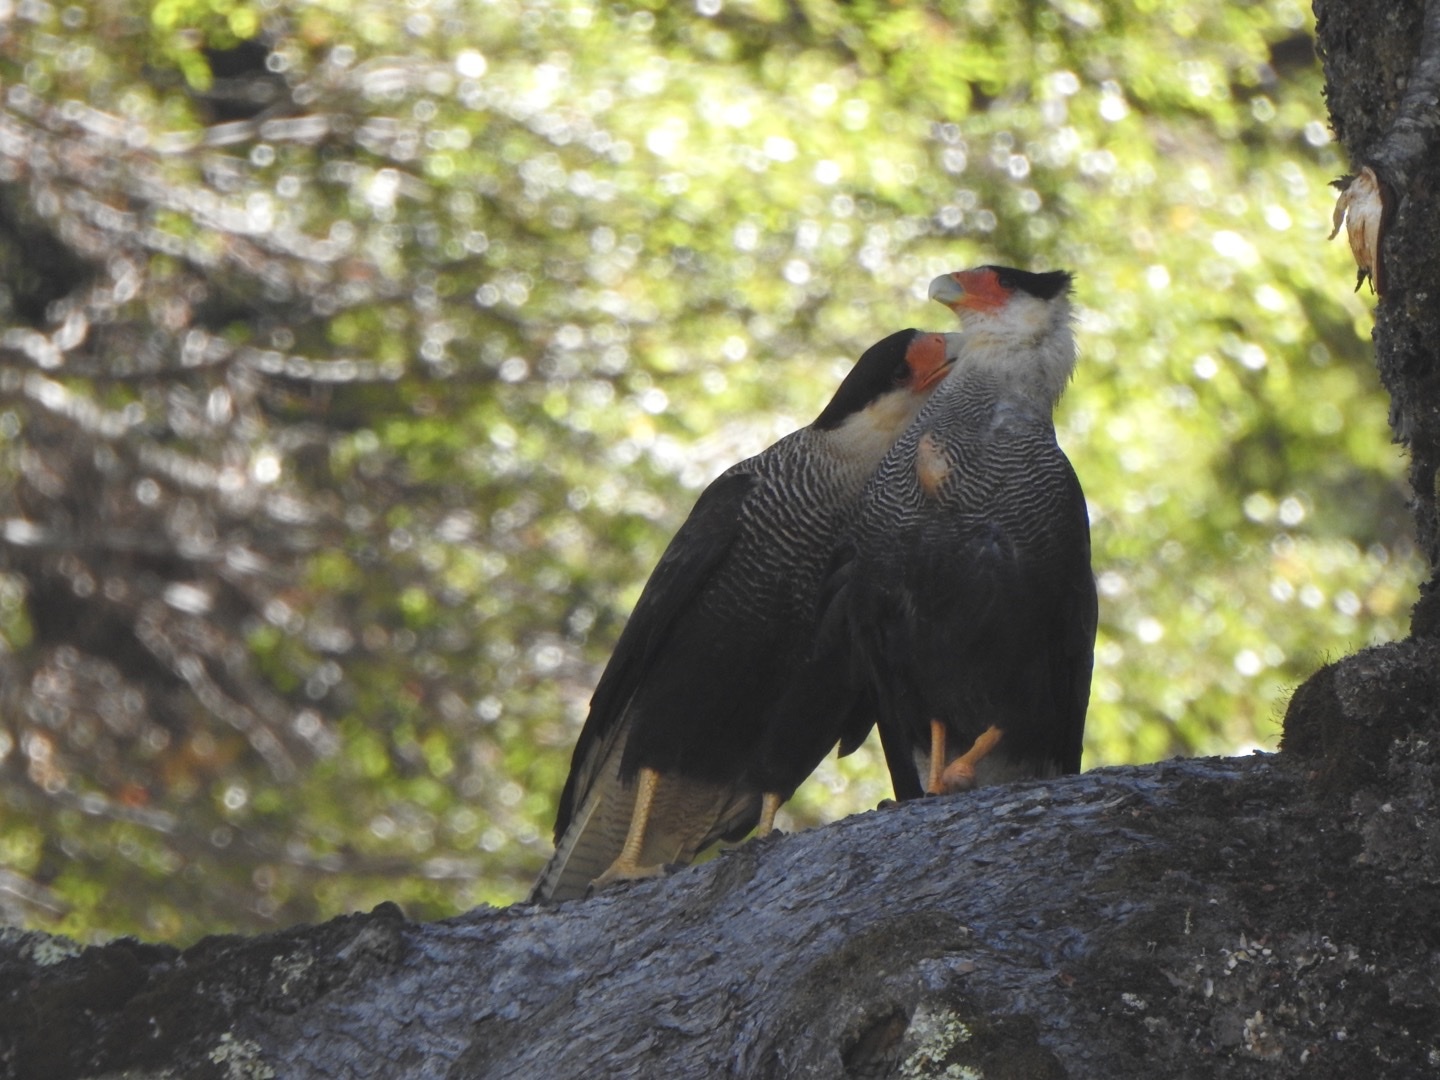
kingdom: Animalia
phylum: Chordata
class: Aves
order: Falconiformes
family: Falconidae
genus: Caracara
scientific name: Caracara plancus
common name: Southern caracara
